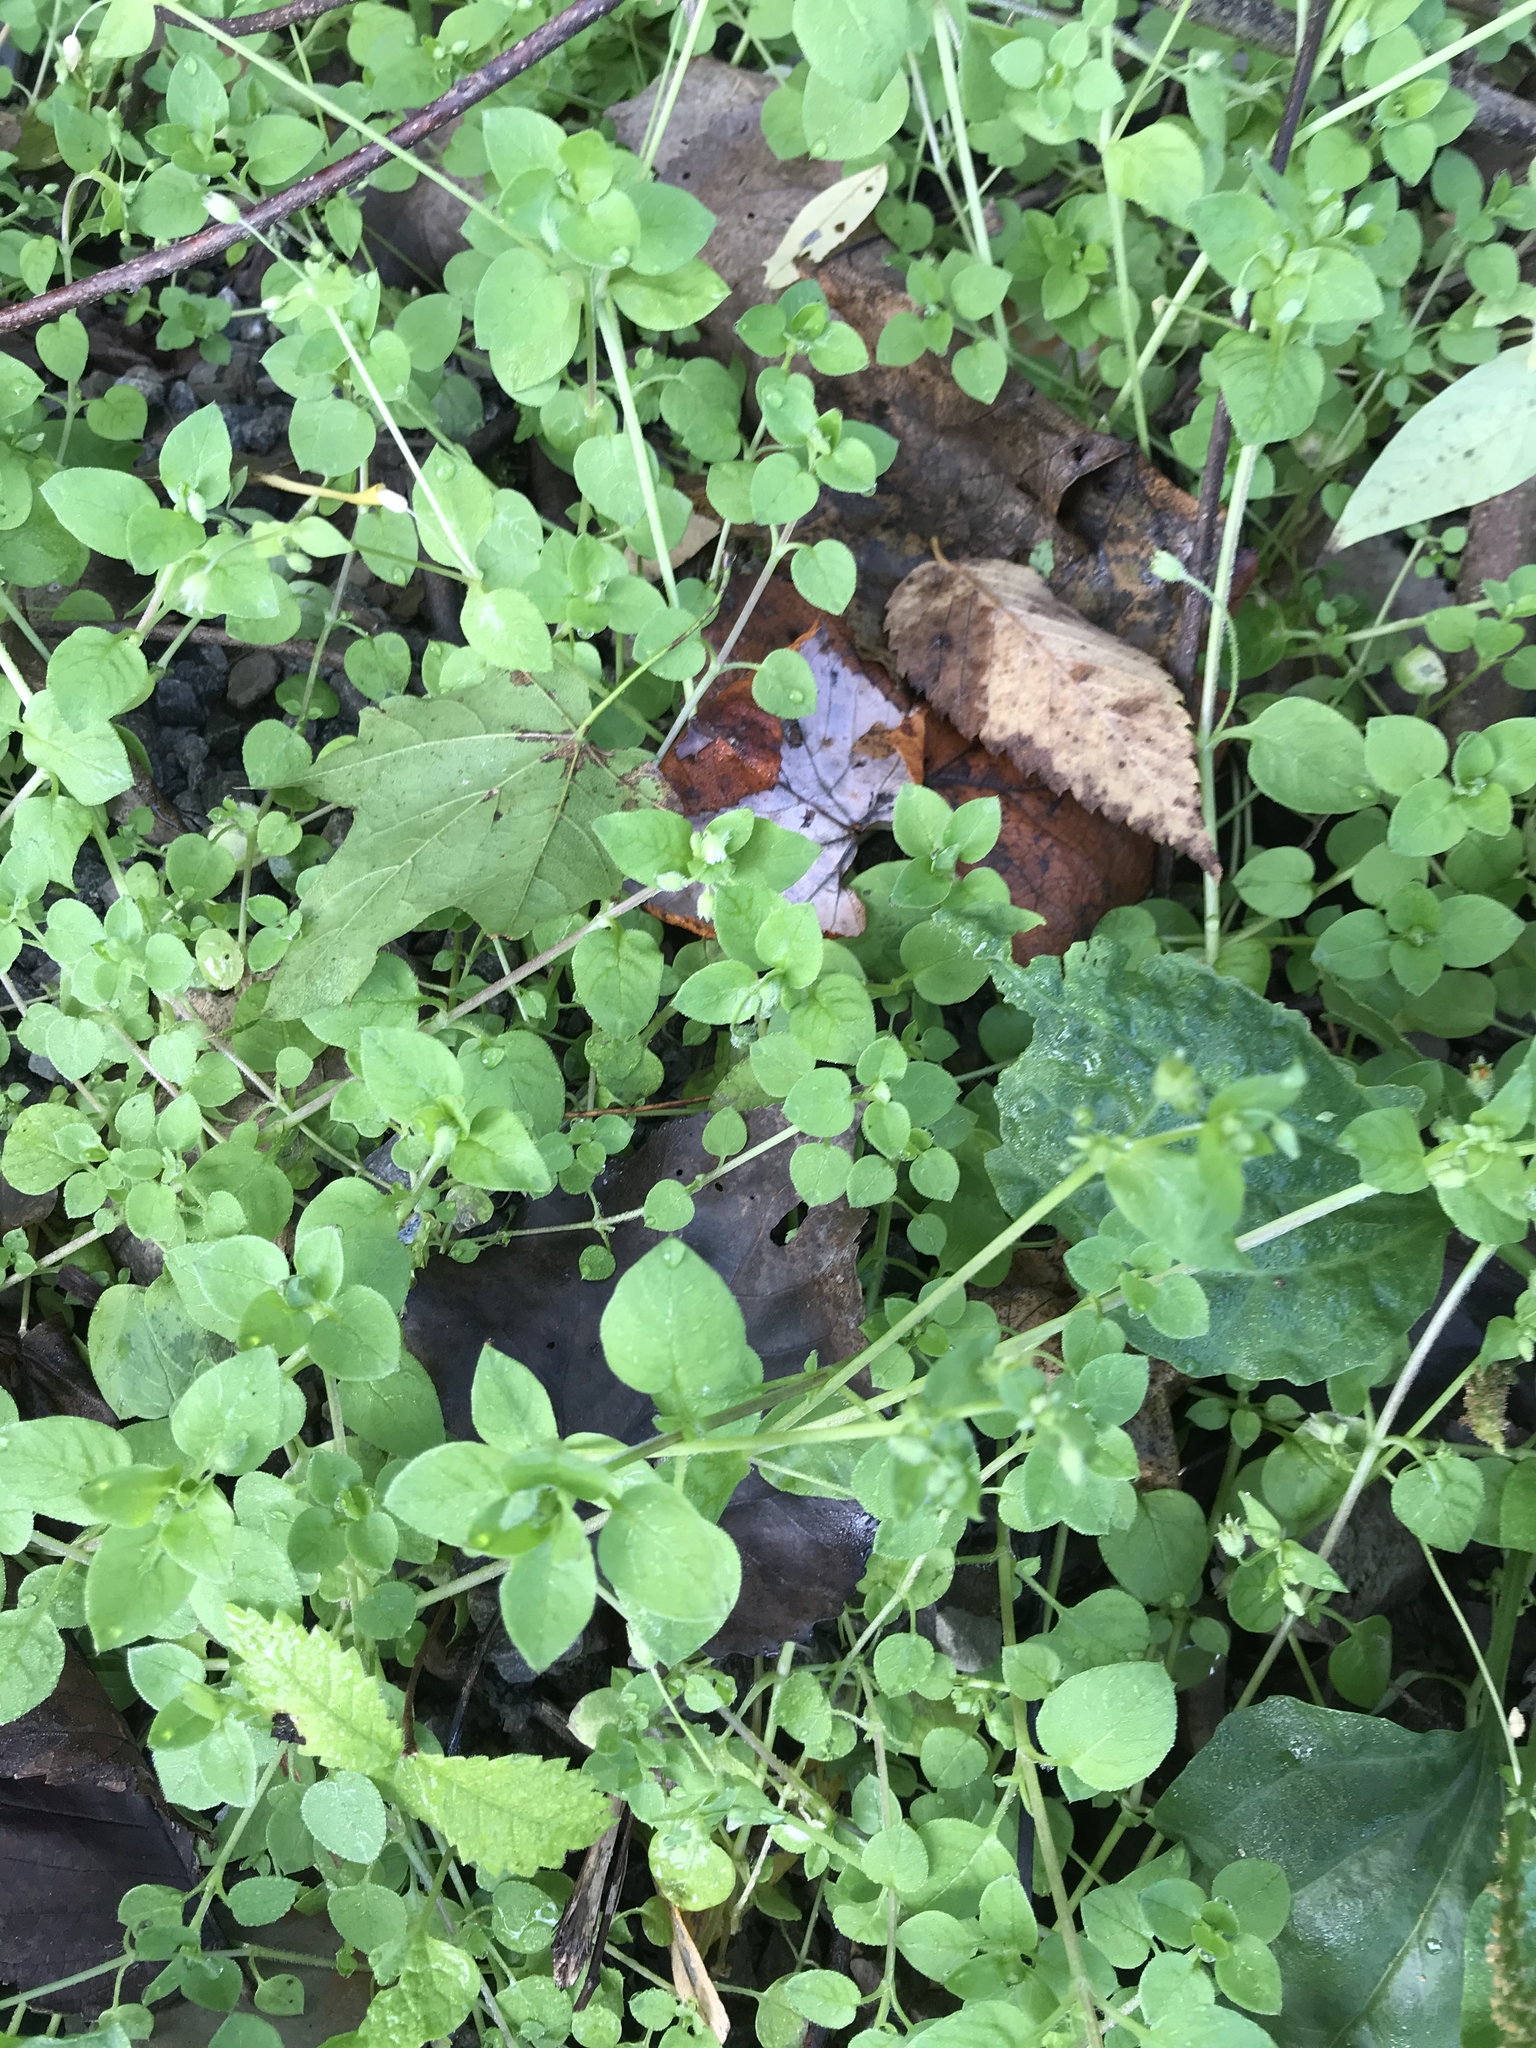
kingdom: Plantae
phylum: Tracheophyta
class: Magnoliopsida
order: Caryophyllales
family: Caryophyllaceae
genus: Stellaria
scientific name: Stellaria media
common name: Common chickweed
